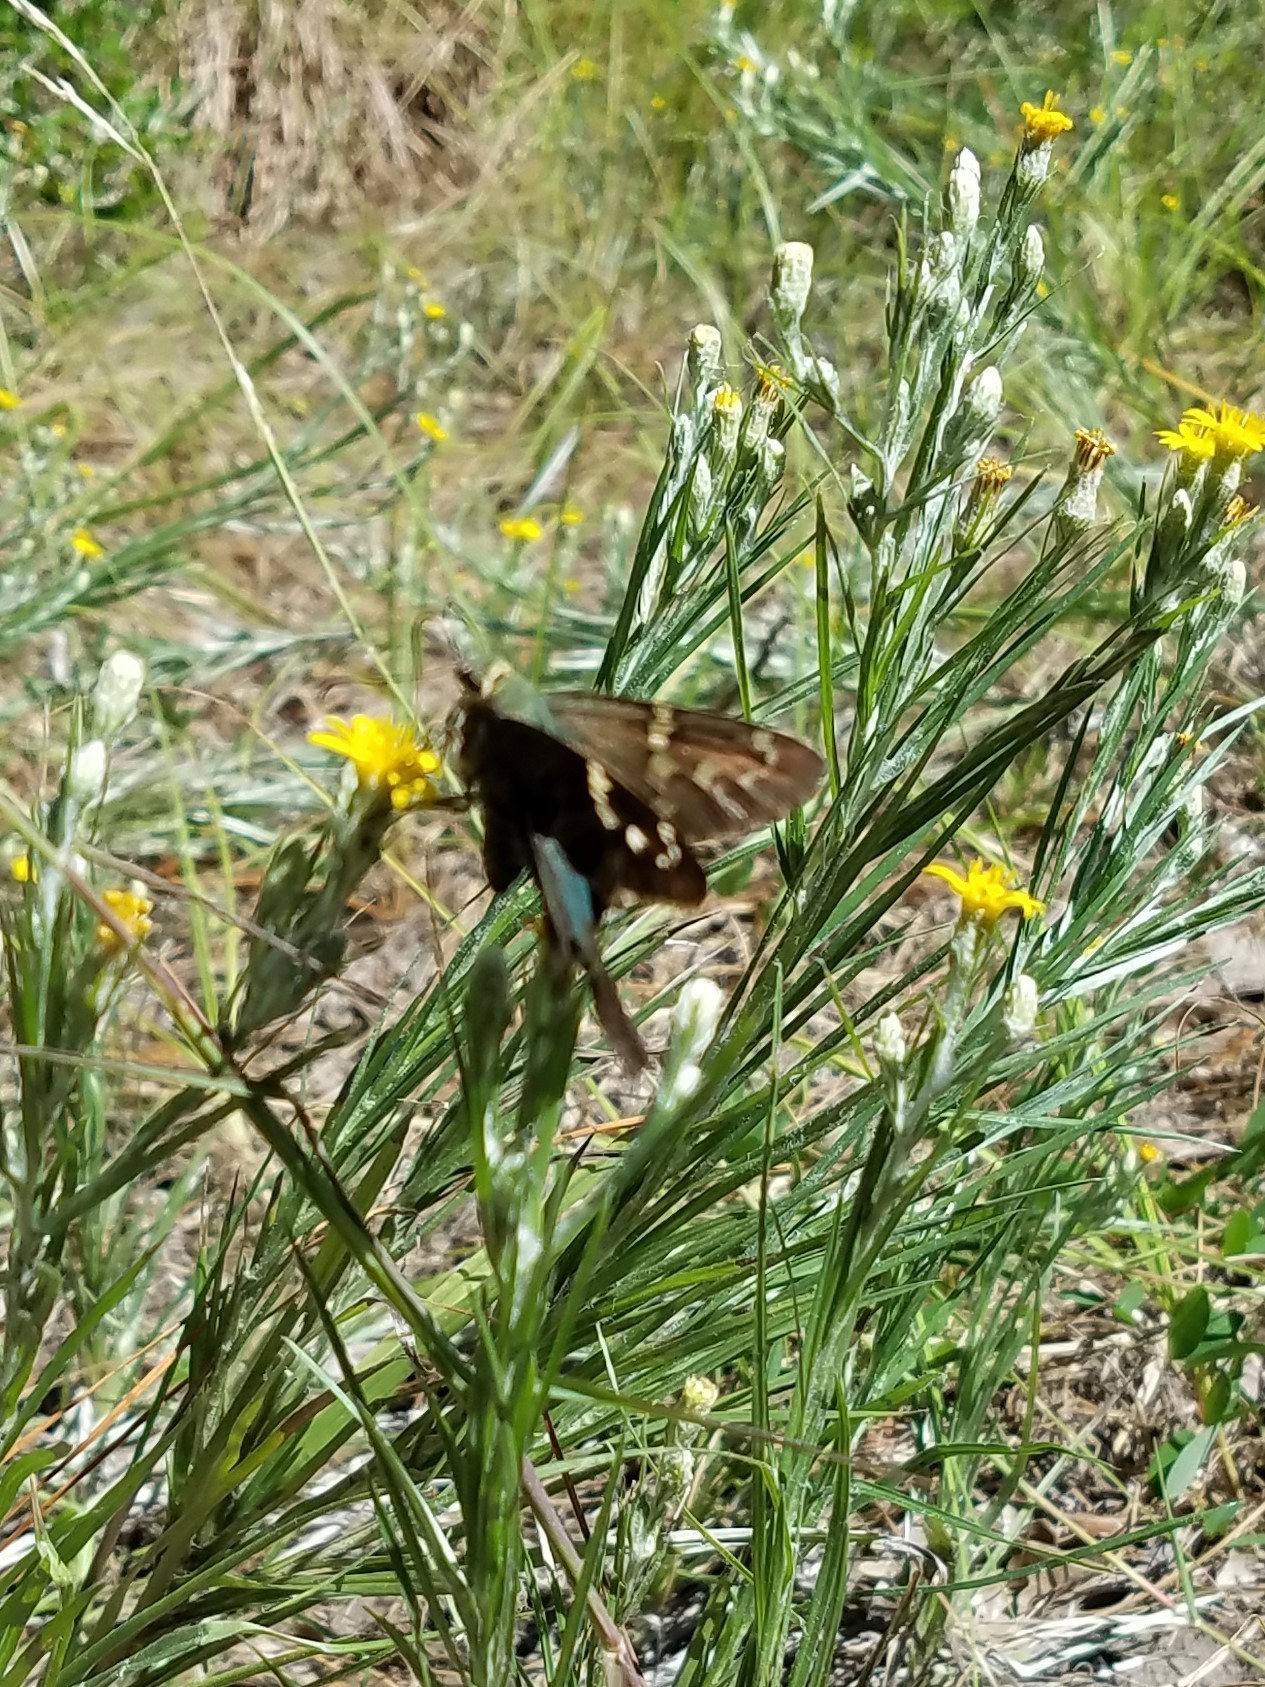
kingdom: Animalia
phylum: Arthropoda
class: Insecta
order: Lepidoptera
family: Hesperiidae
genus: Urbanus
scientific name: Urbanus proteus
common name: Long-tailed skipper
